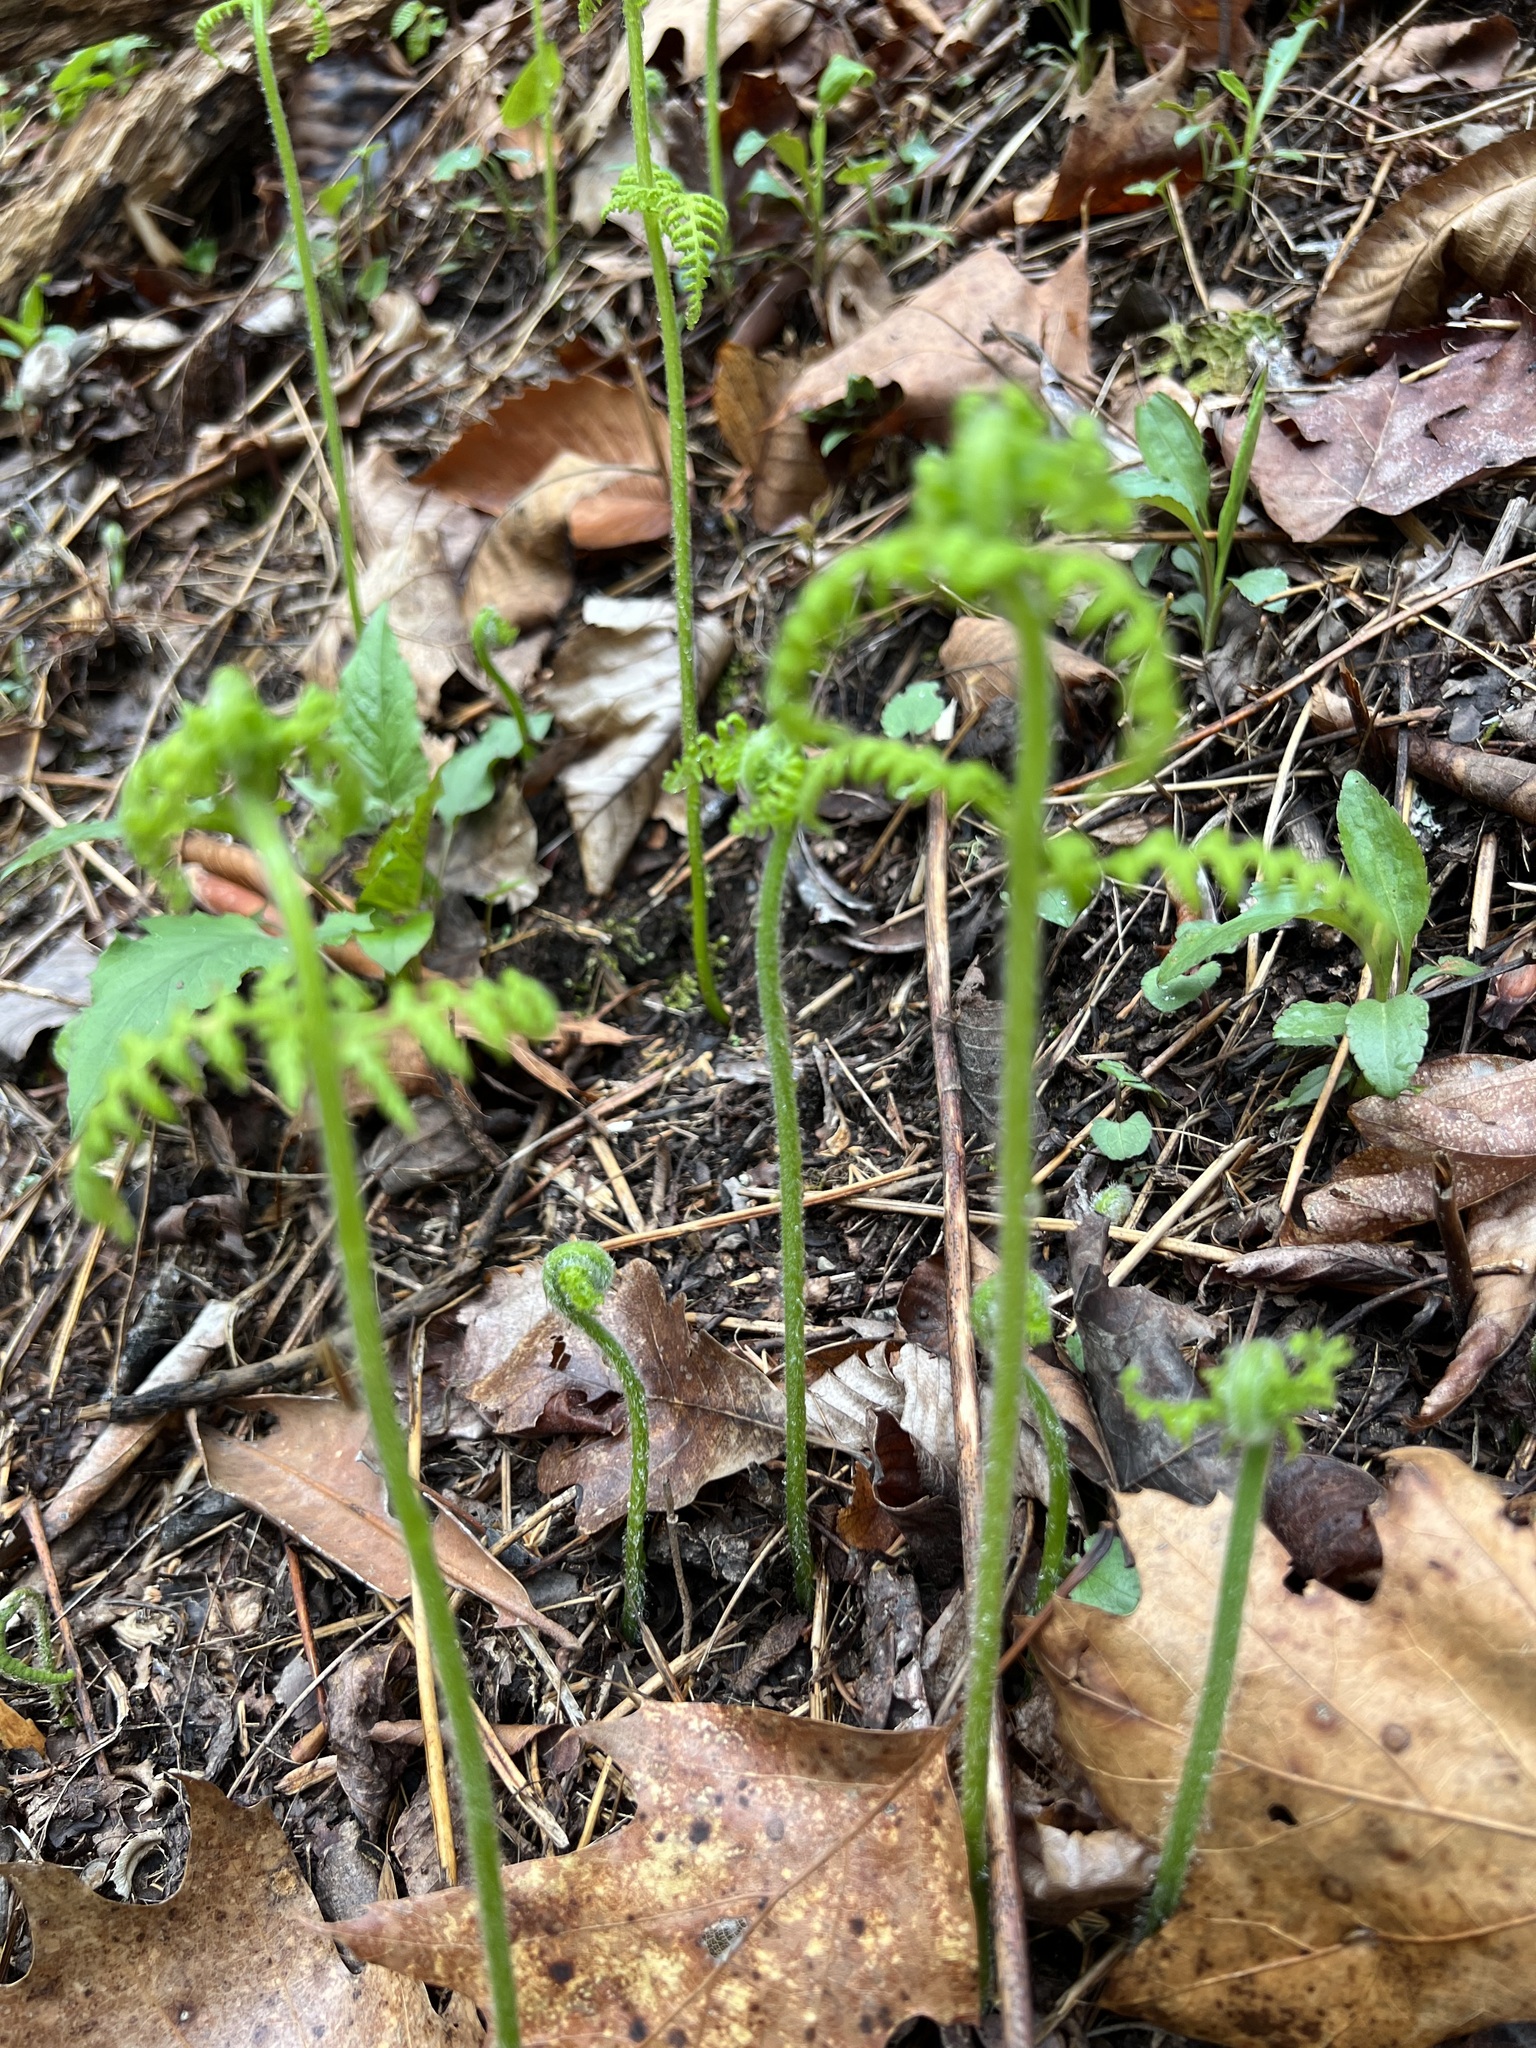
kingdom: Plantae
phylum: Tracheophyta
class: Polypodiopsida
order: Polypodiales
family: Dennstaedtiaceae
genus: Sitobolium
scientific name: Sitobolium punctilobum
